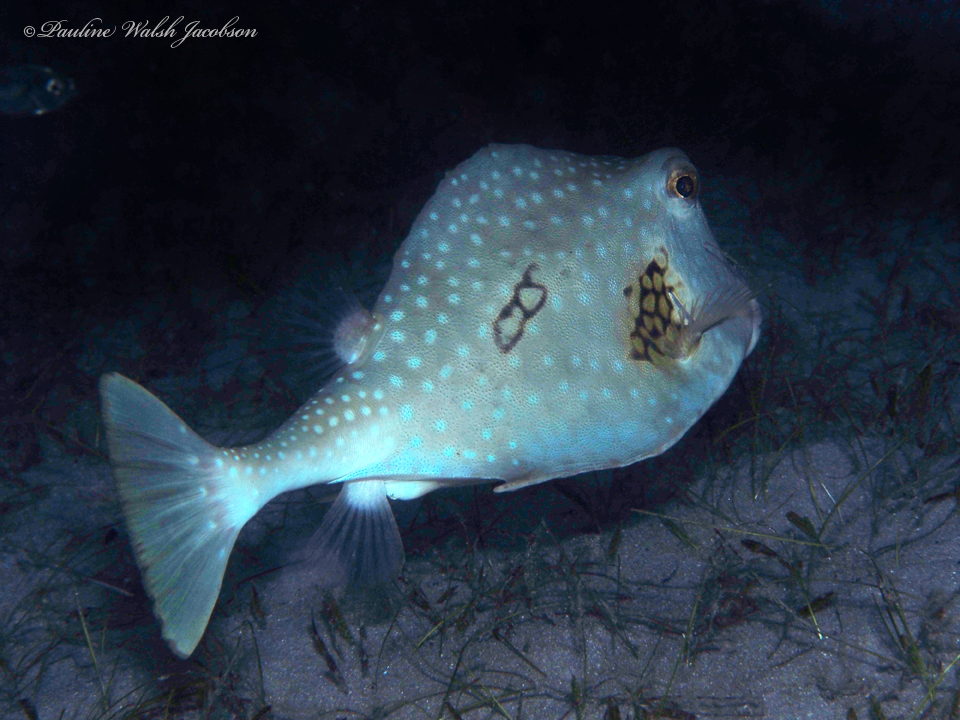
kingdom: Animalia
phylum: Chordata
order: Tetraodontiformes
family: Ostraciidae
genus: Lactophrys
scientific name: Lactophrys trigonus
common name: Buffalo trunkfish
